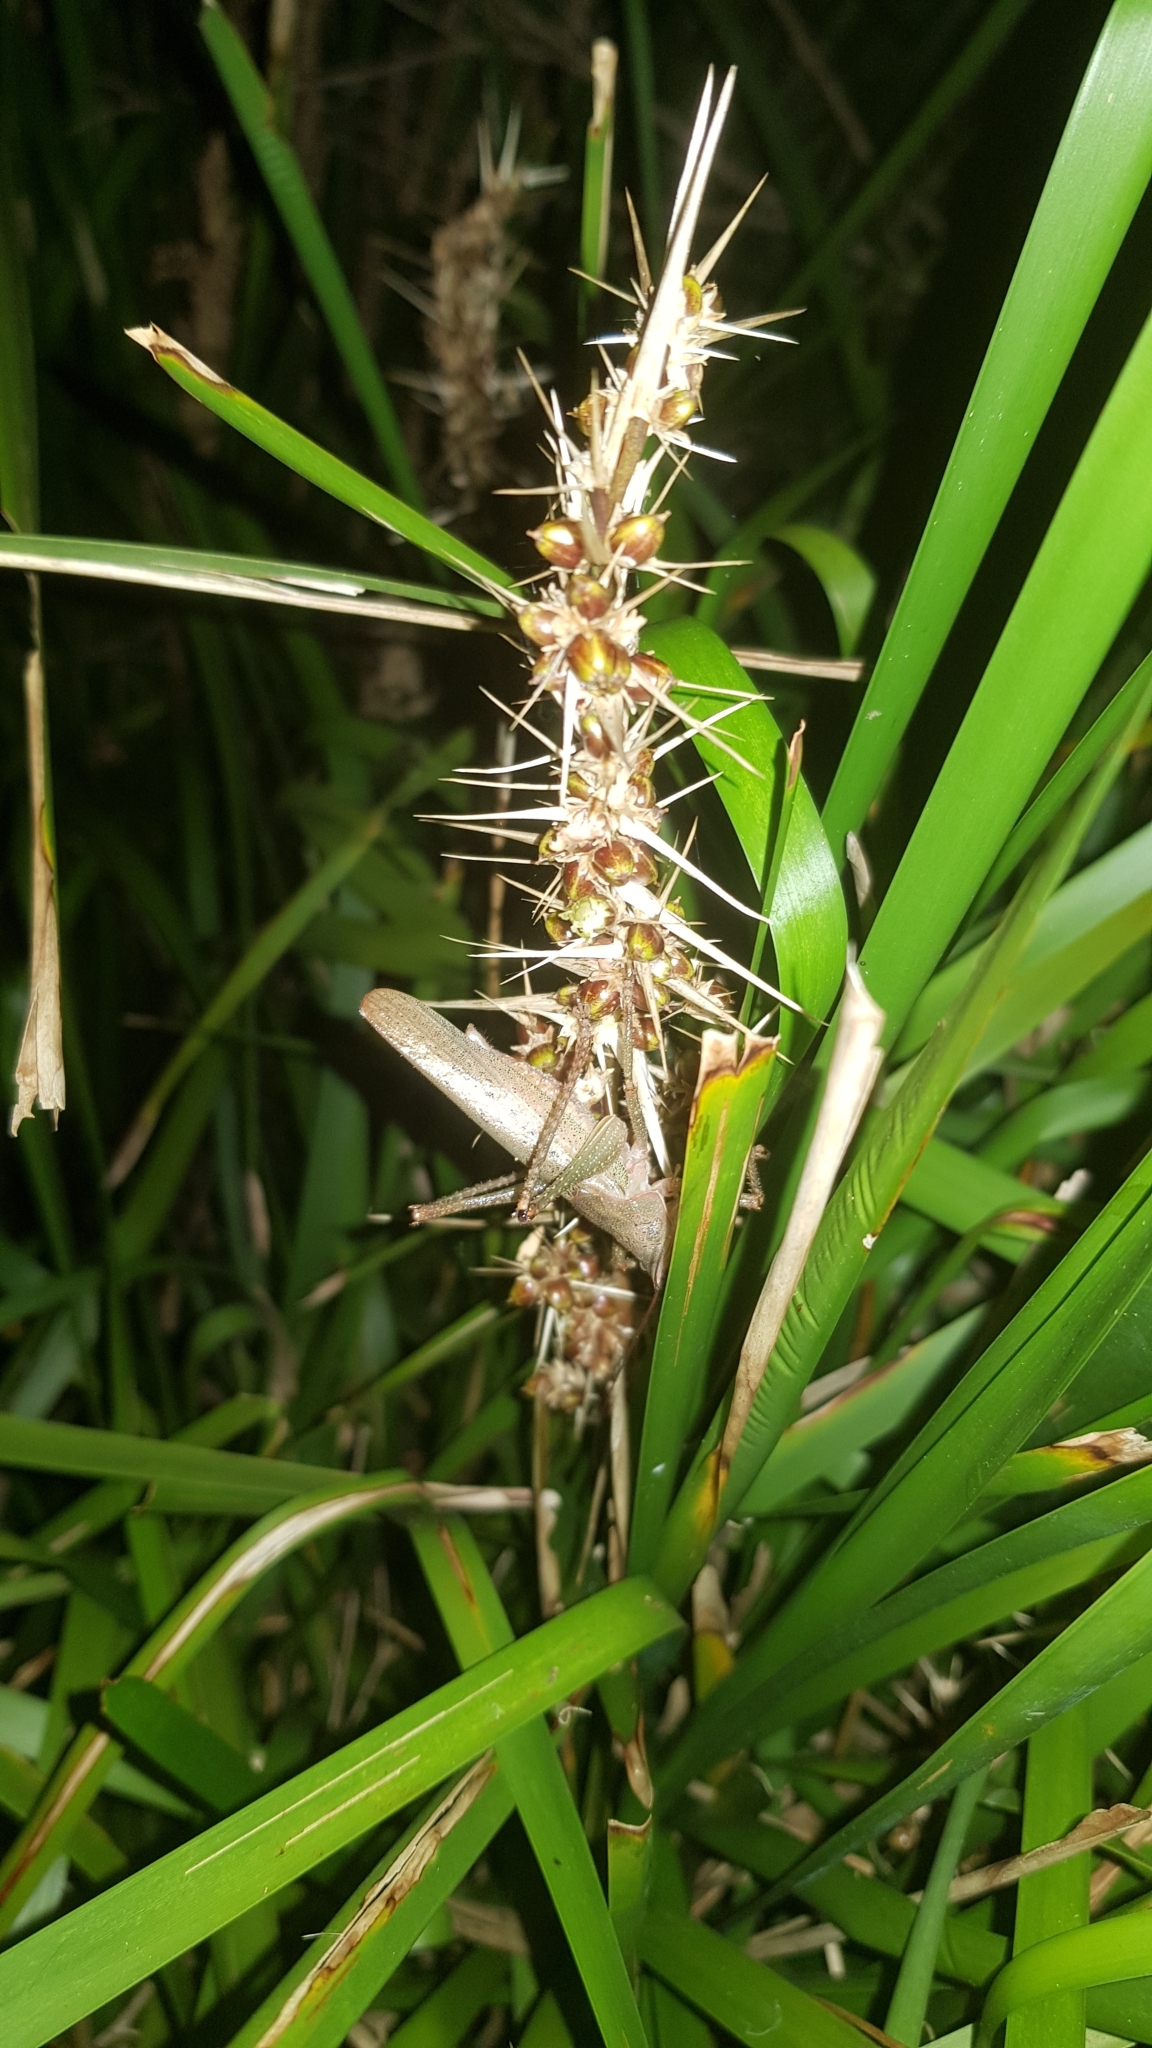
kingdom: Animalia
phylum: Arthropoda
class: Insecta
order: Orthoptera
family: Tettigoniidae
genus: Austrosalomona
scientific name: Austrosalomona falcata
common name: Olive-green coastal katydid
